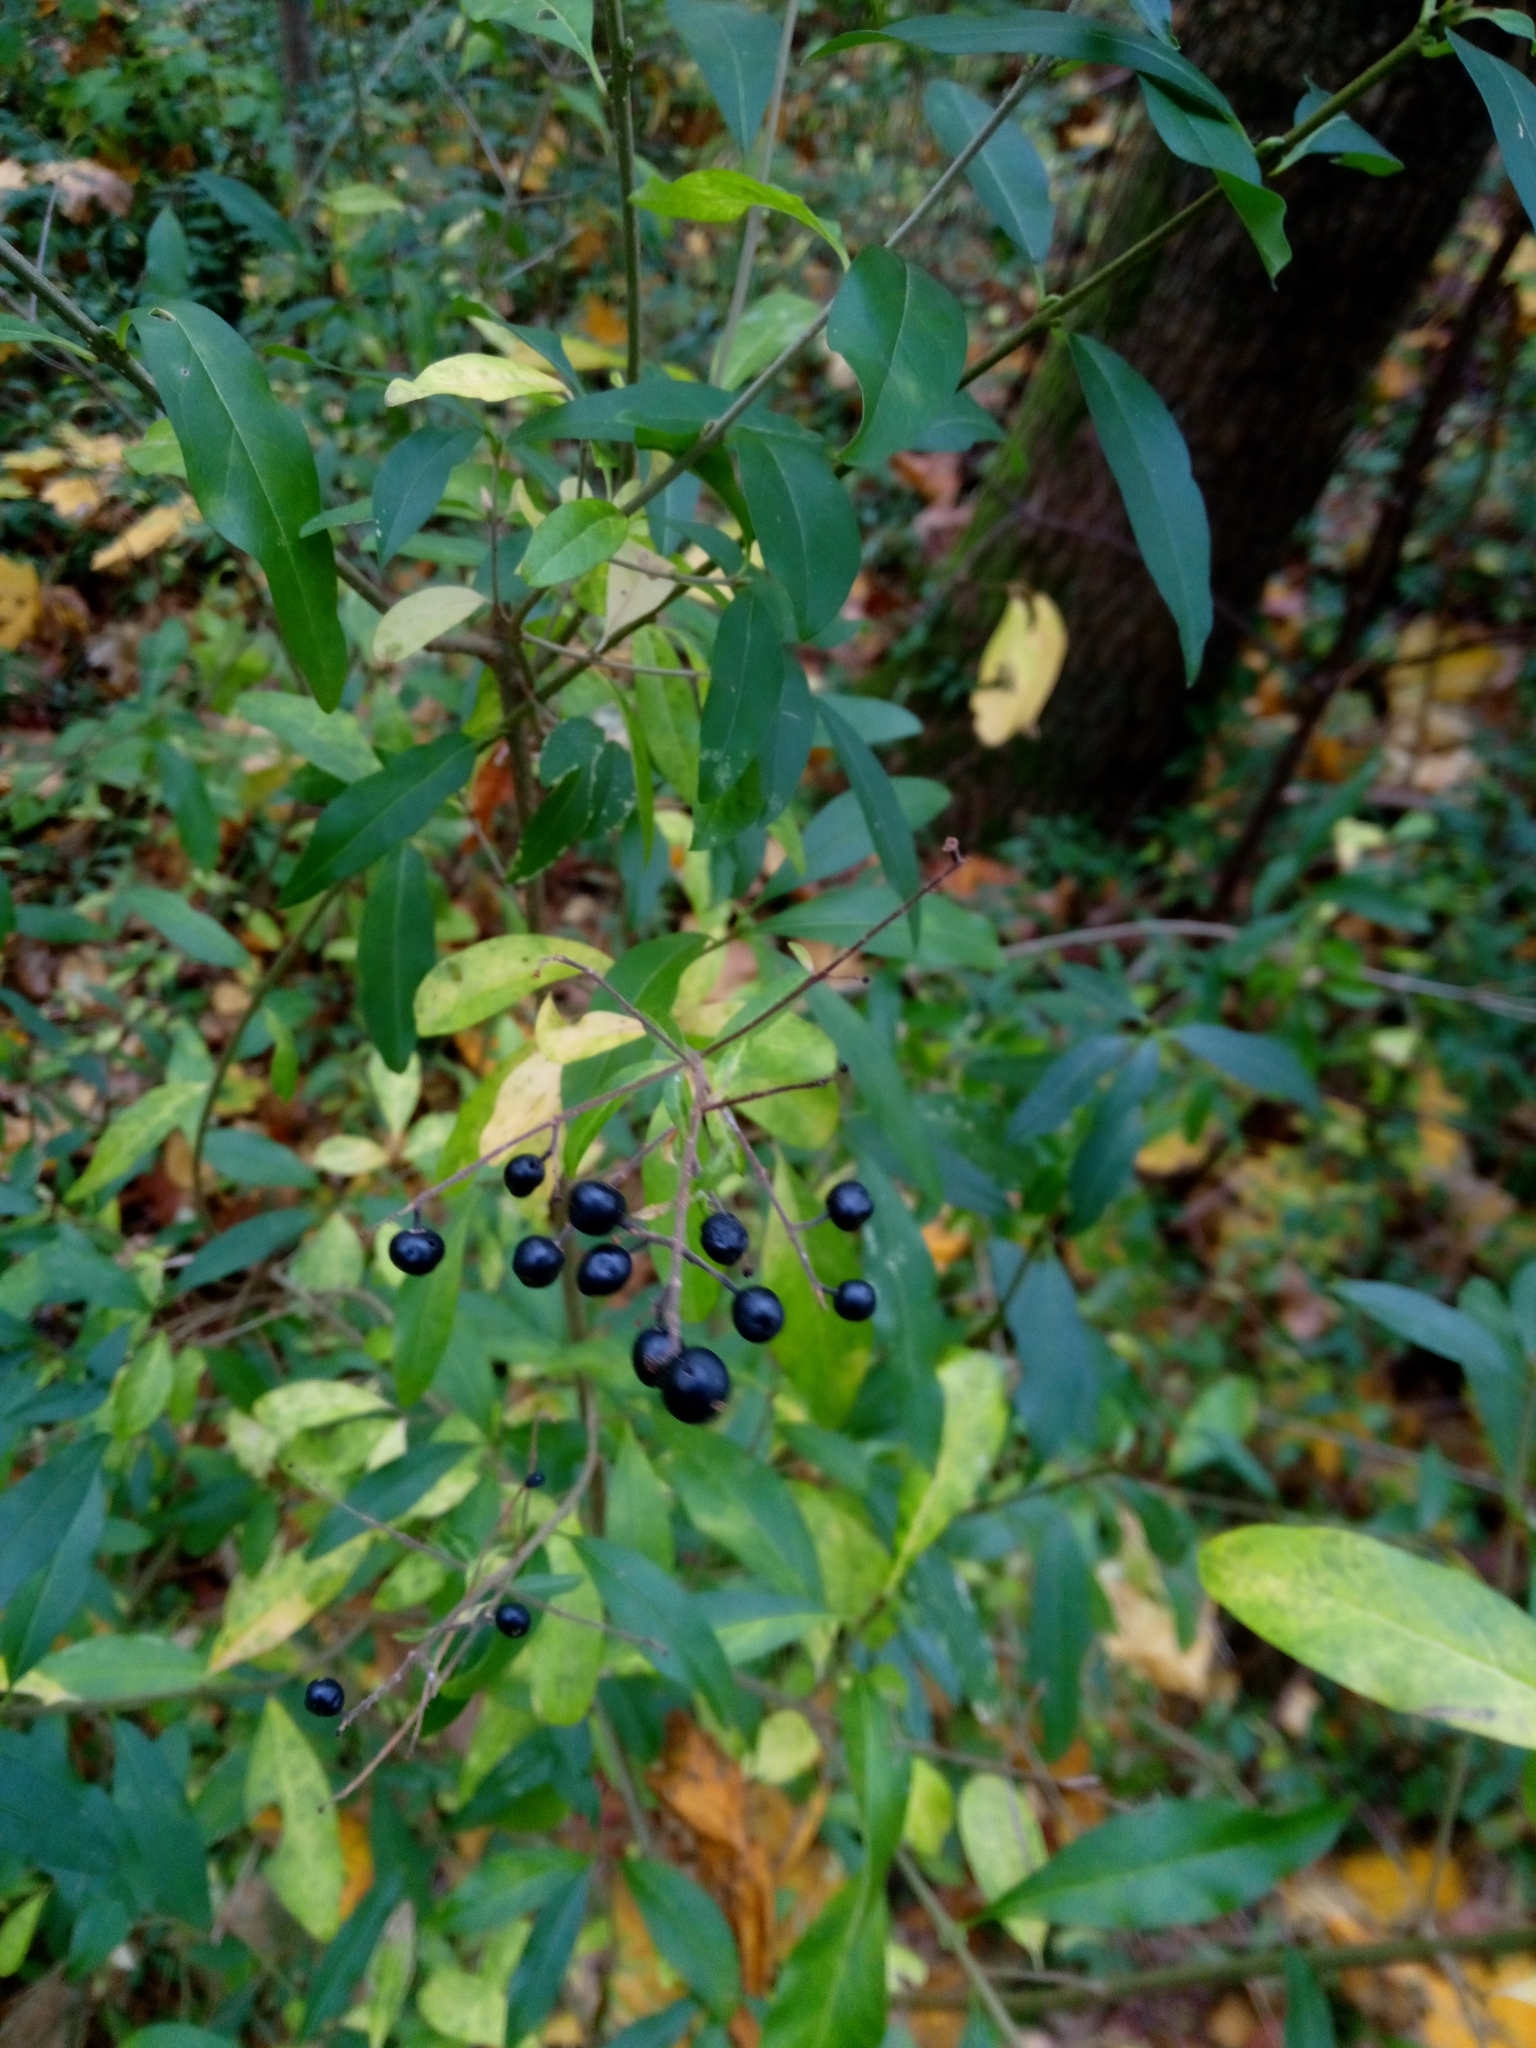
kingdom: Plantae
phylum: Tracheophyta
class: Magnoliopsida
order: Lamiales
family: Oleaceae
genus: Ligustrum
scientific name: Ligustrum vulgare
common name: Wild privet
